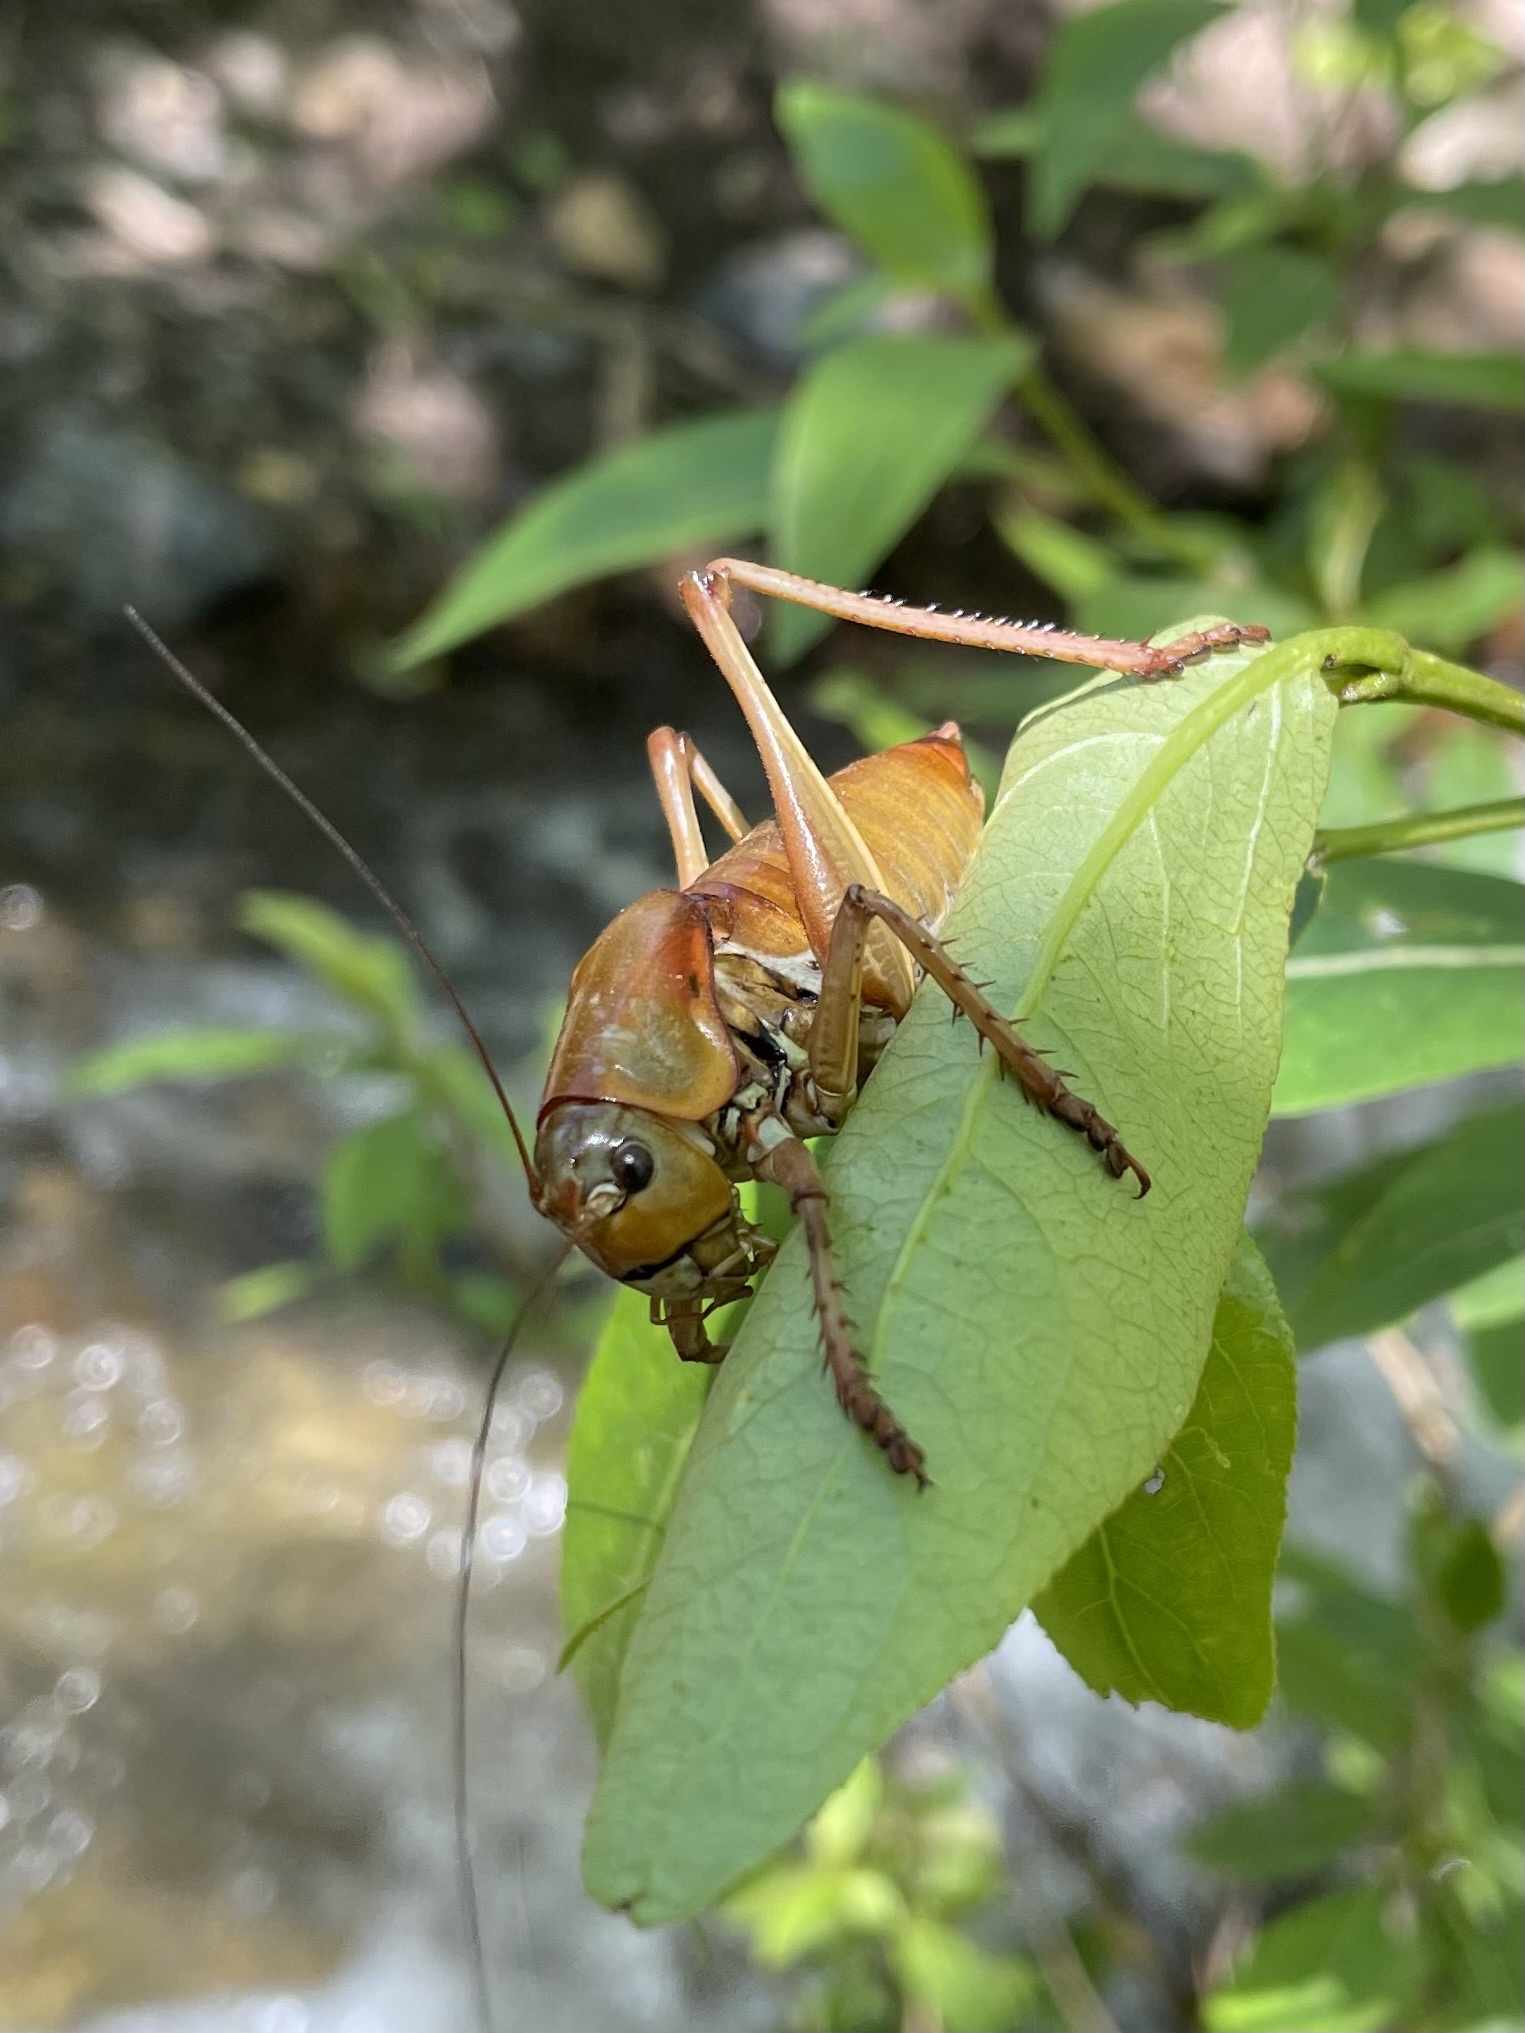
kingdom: Animalia
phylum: Arthropoda
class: Insecta
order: Orthoptera
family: Tettigoniidae
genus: Anabrus
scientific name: Anabrus simplex
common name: Mormon cricket
